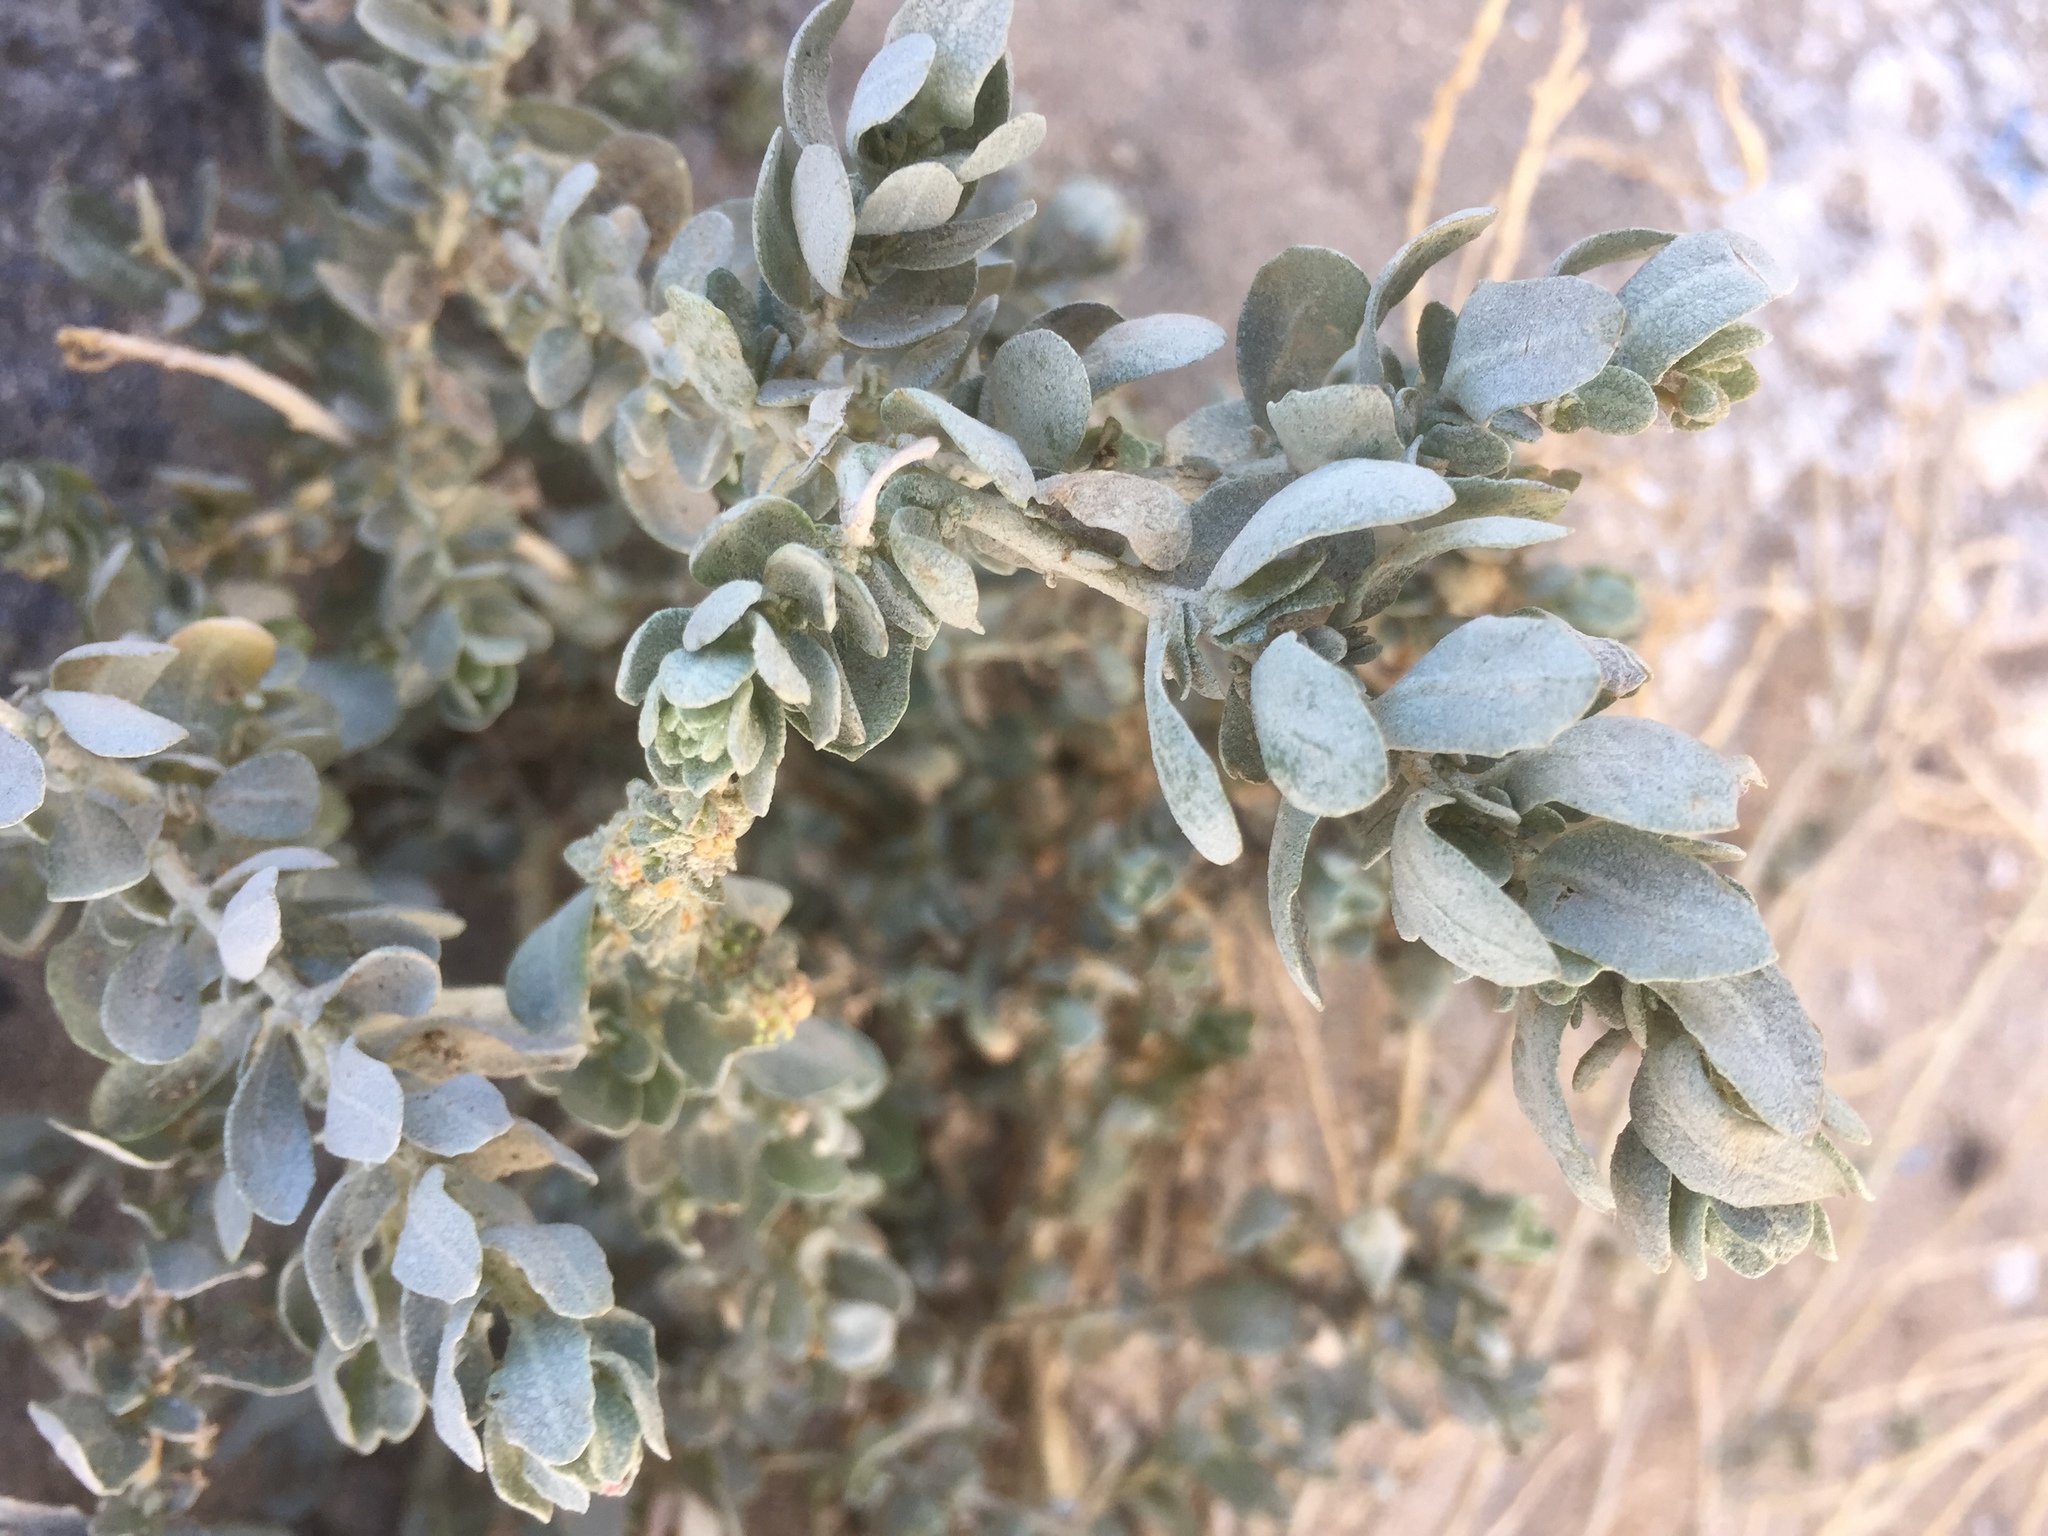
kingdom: Plantae
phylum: Tracheophyta
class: Magnoliopsida
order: Caryophyllales
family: Amaranthaceae
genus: Atriplex
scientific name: Atriplex halimus
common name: Shrubby orache
